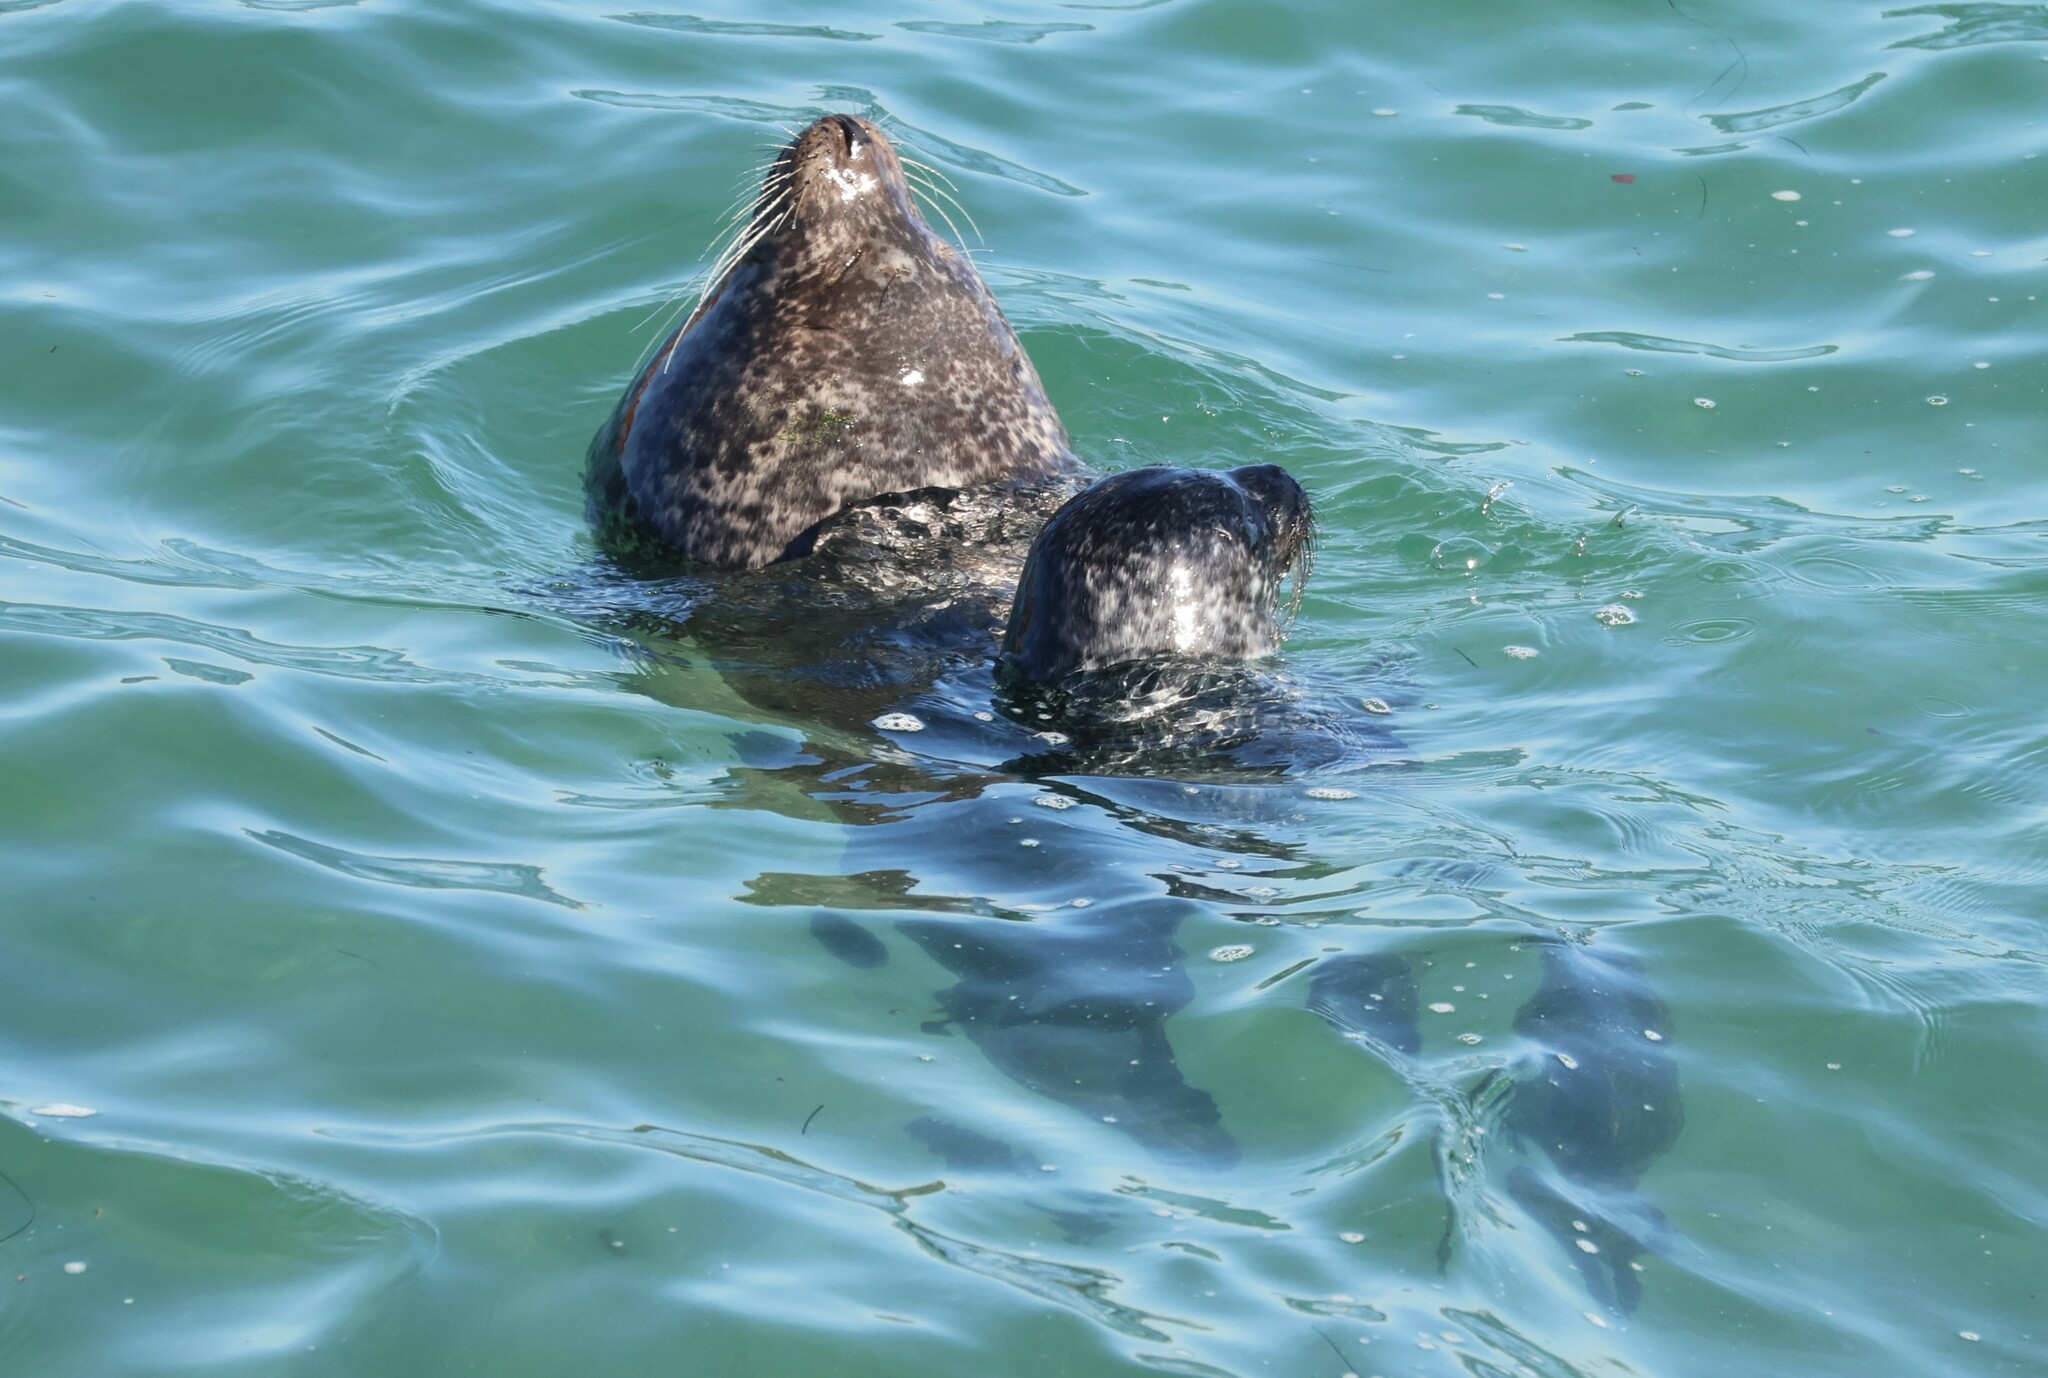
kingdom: Animalia
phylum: Chordata
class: Mammalia
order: Carnivora
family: Phocidae
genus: Phoca
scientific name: Phoca vitulina
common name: Harbor seal
